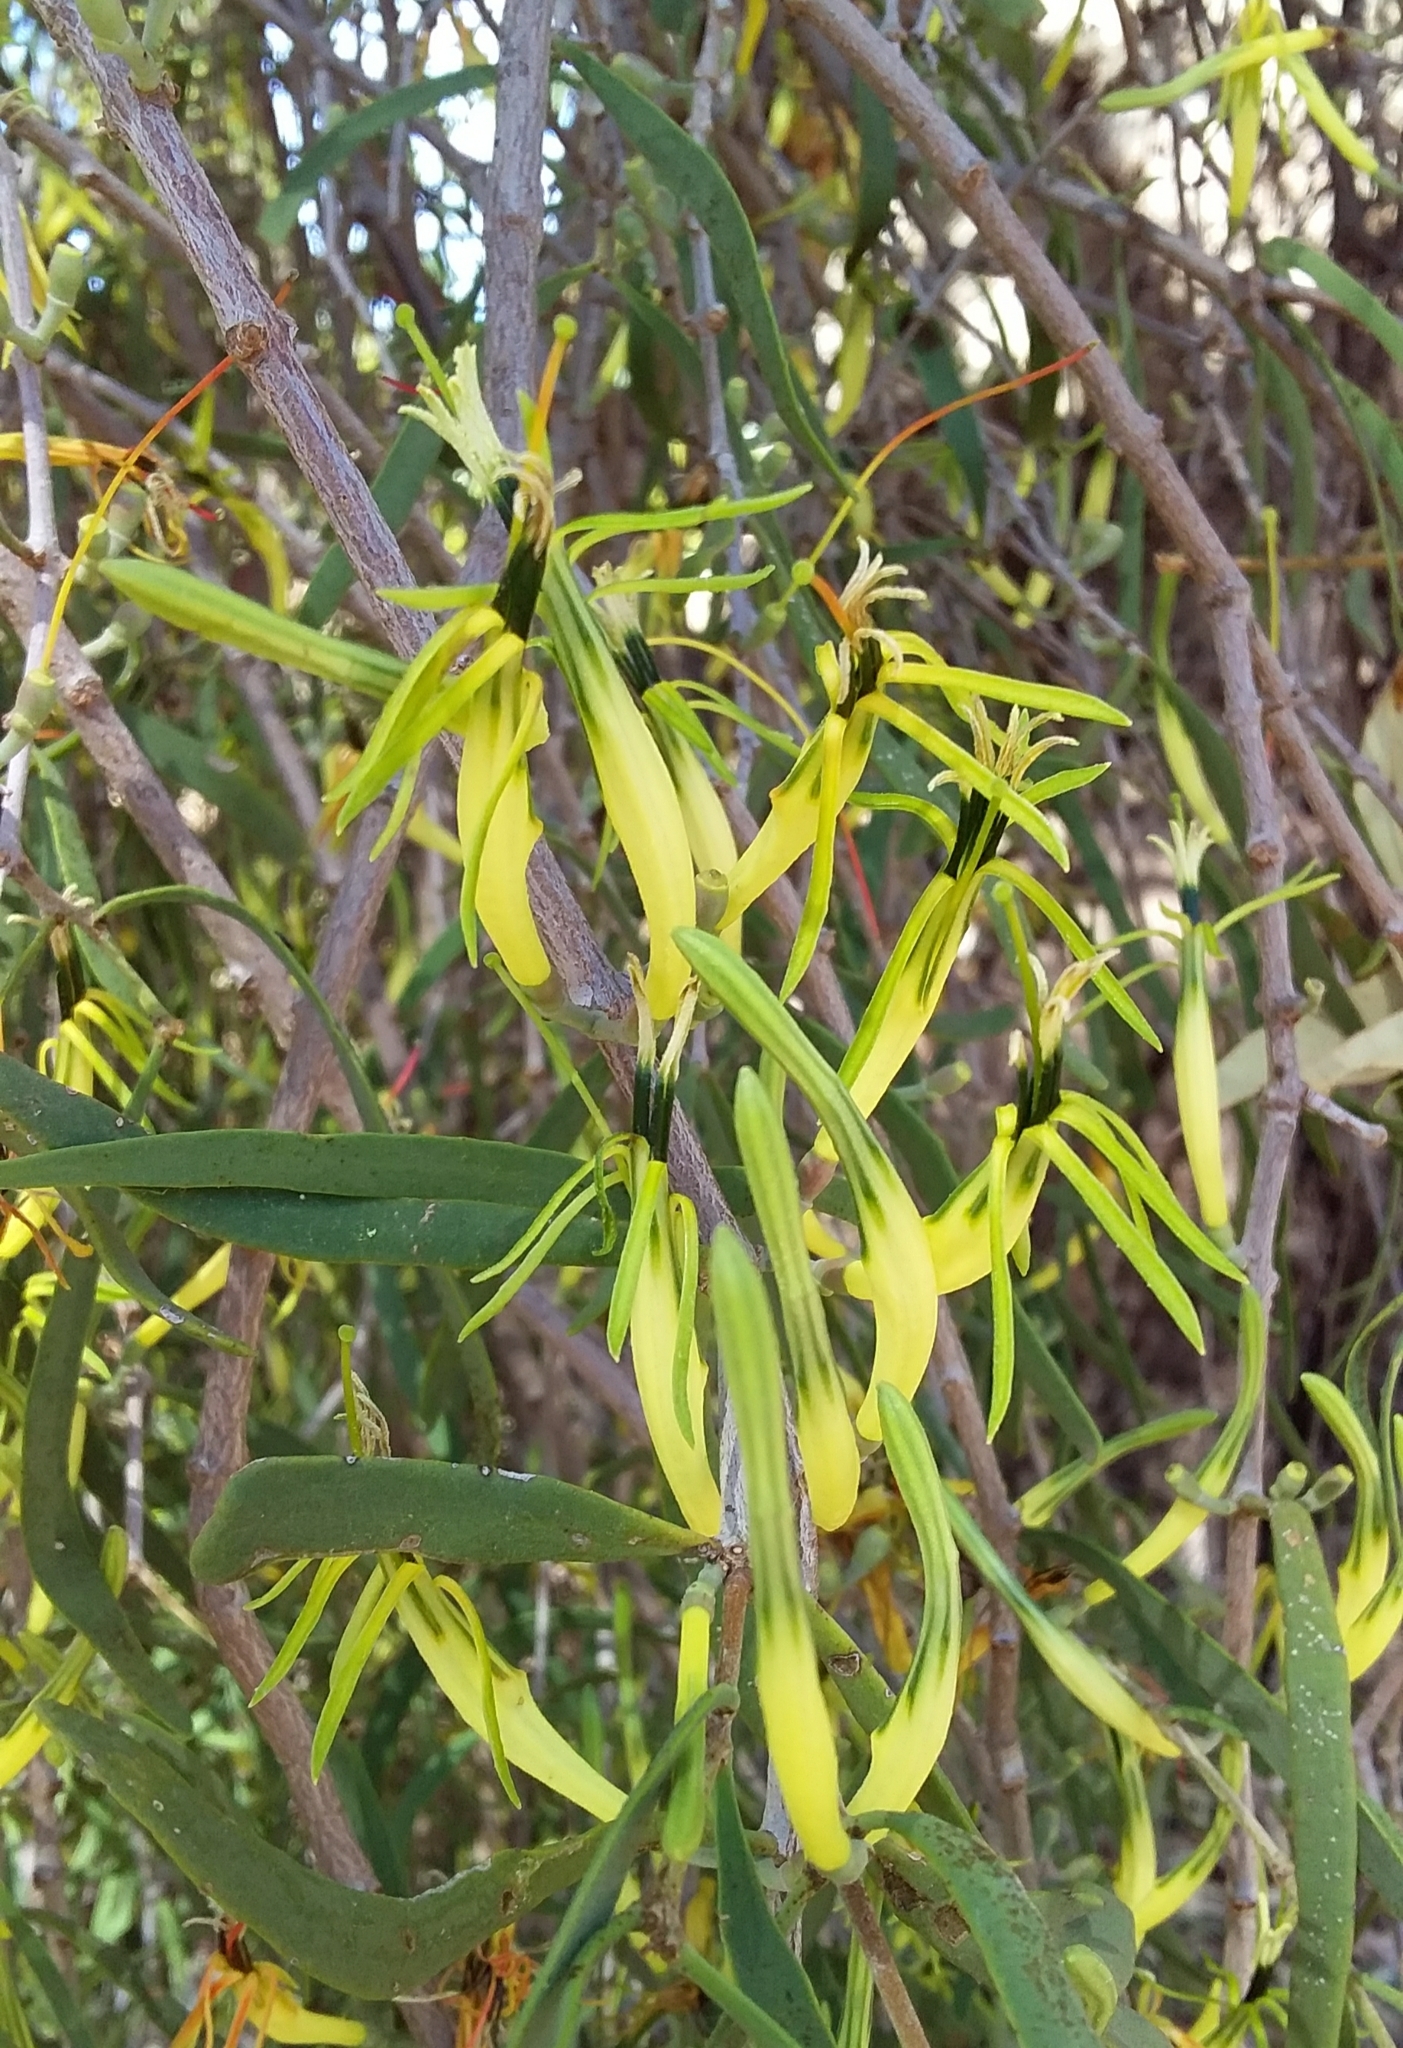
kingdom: Plantae
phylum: Tracheophyta
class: Magnoliopsida
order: Santalales
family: Loranthaceae
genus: Lysiana
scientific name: Lysiana exocarpi
